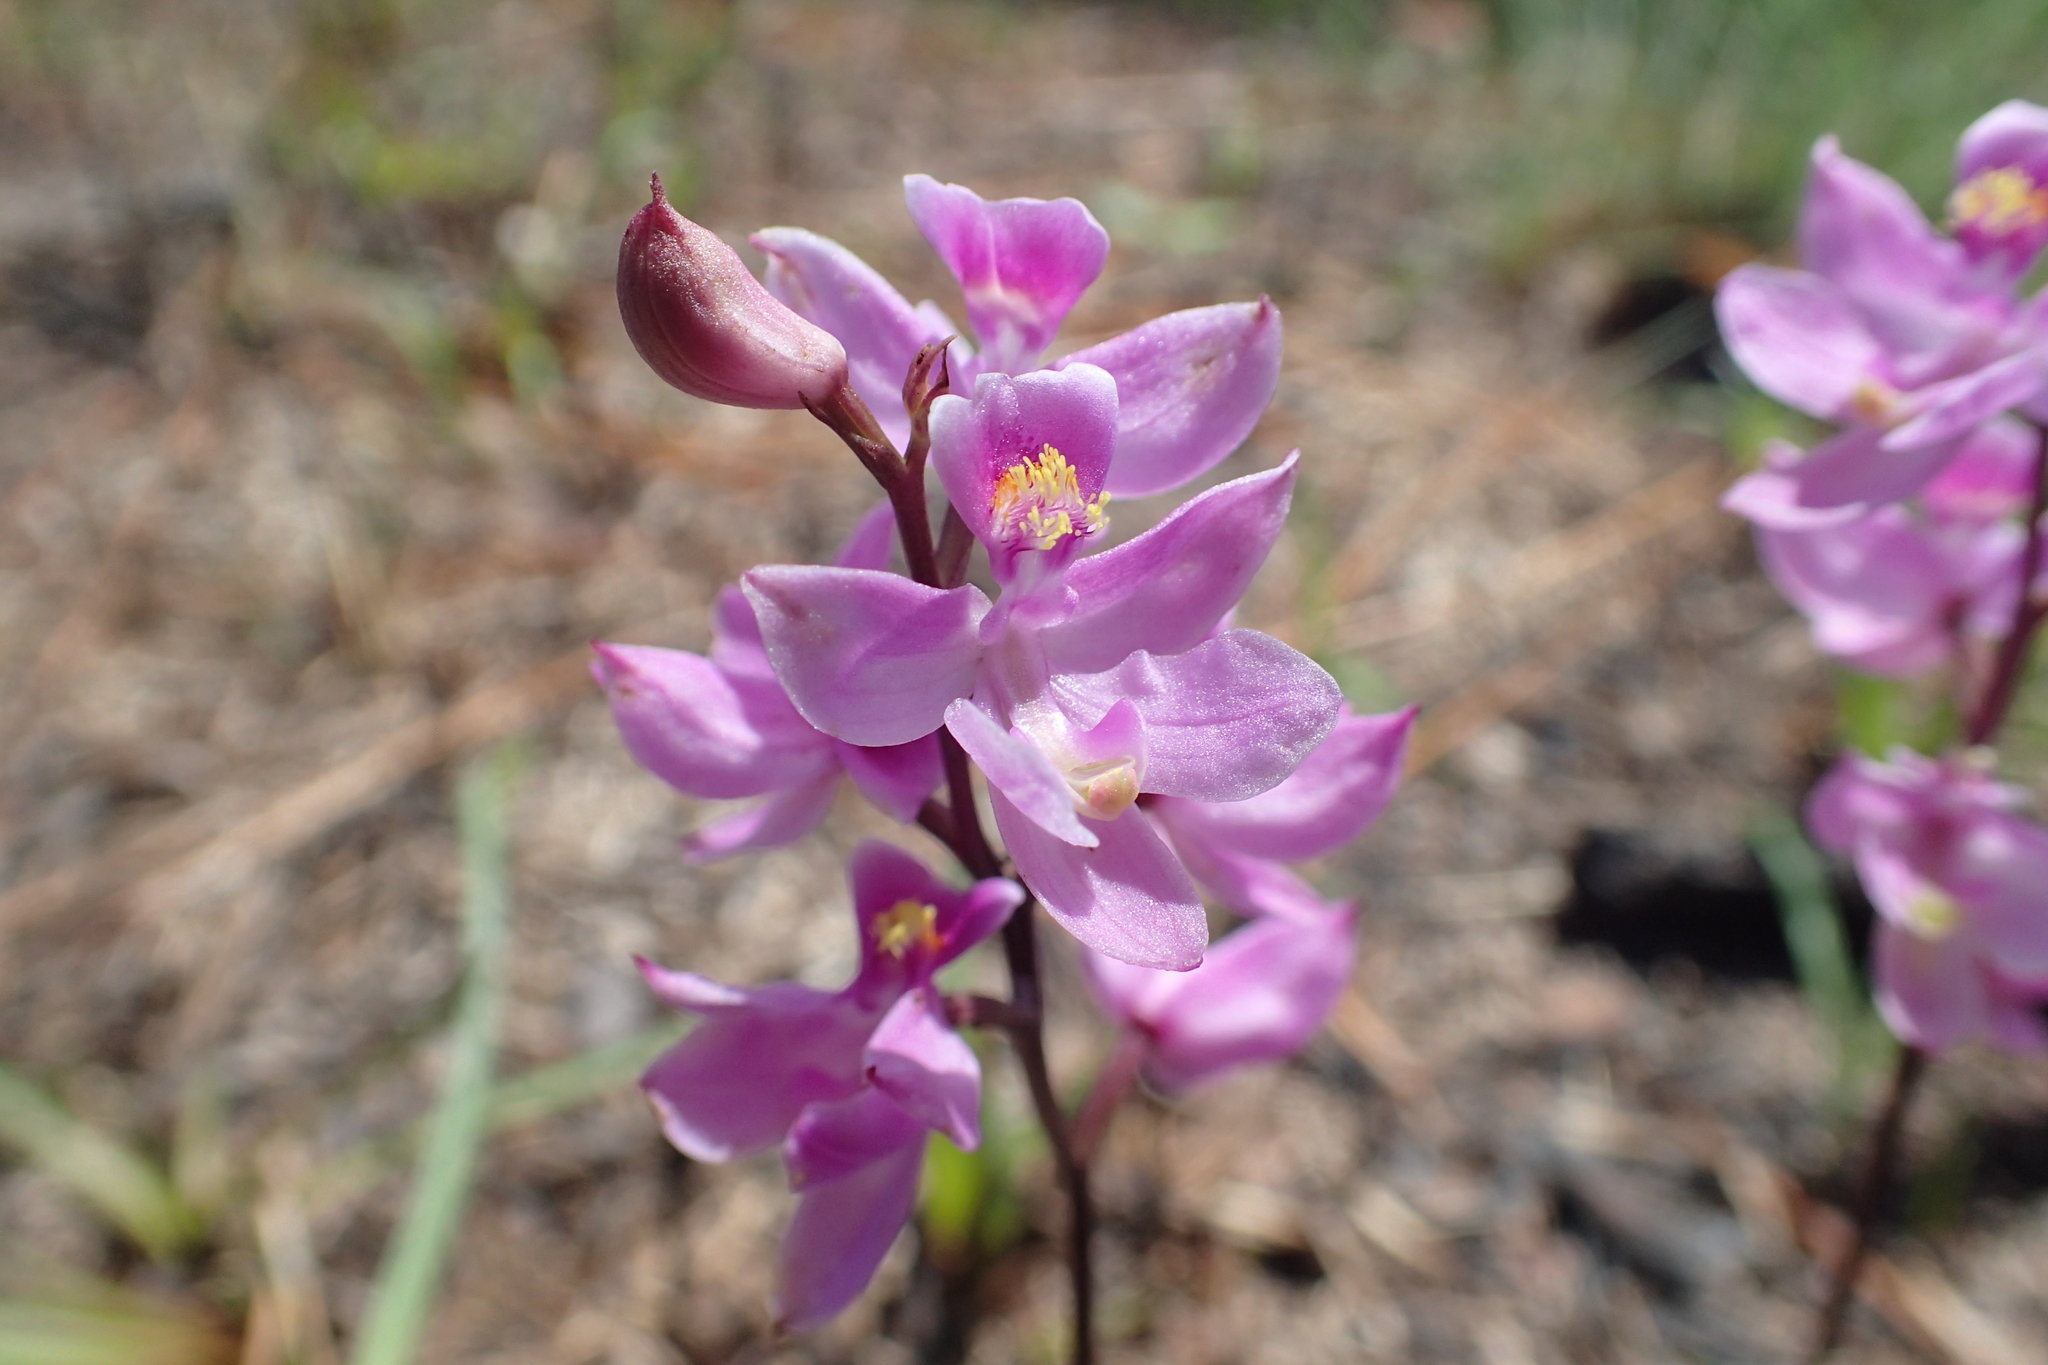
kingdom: Plantae
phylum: Tracheophyta
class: Liliopsida
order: Asparagales
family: Orchidaceae
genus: Calopogon
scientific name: Calopogon multiflorus
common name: Many-flowered grass-pink orchid
